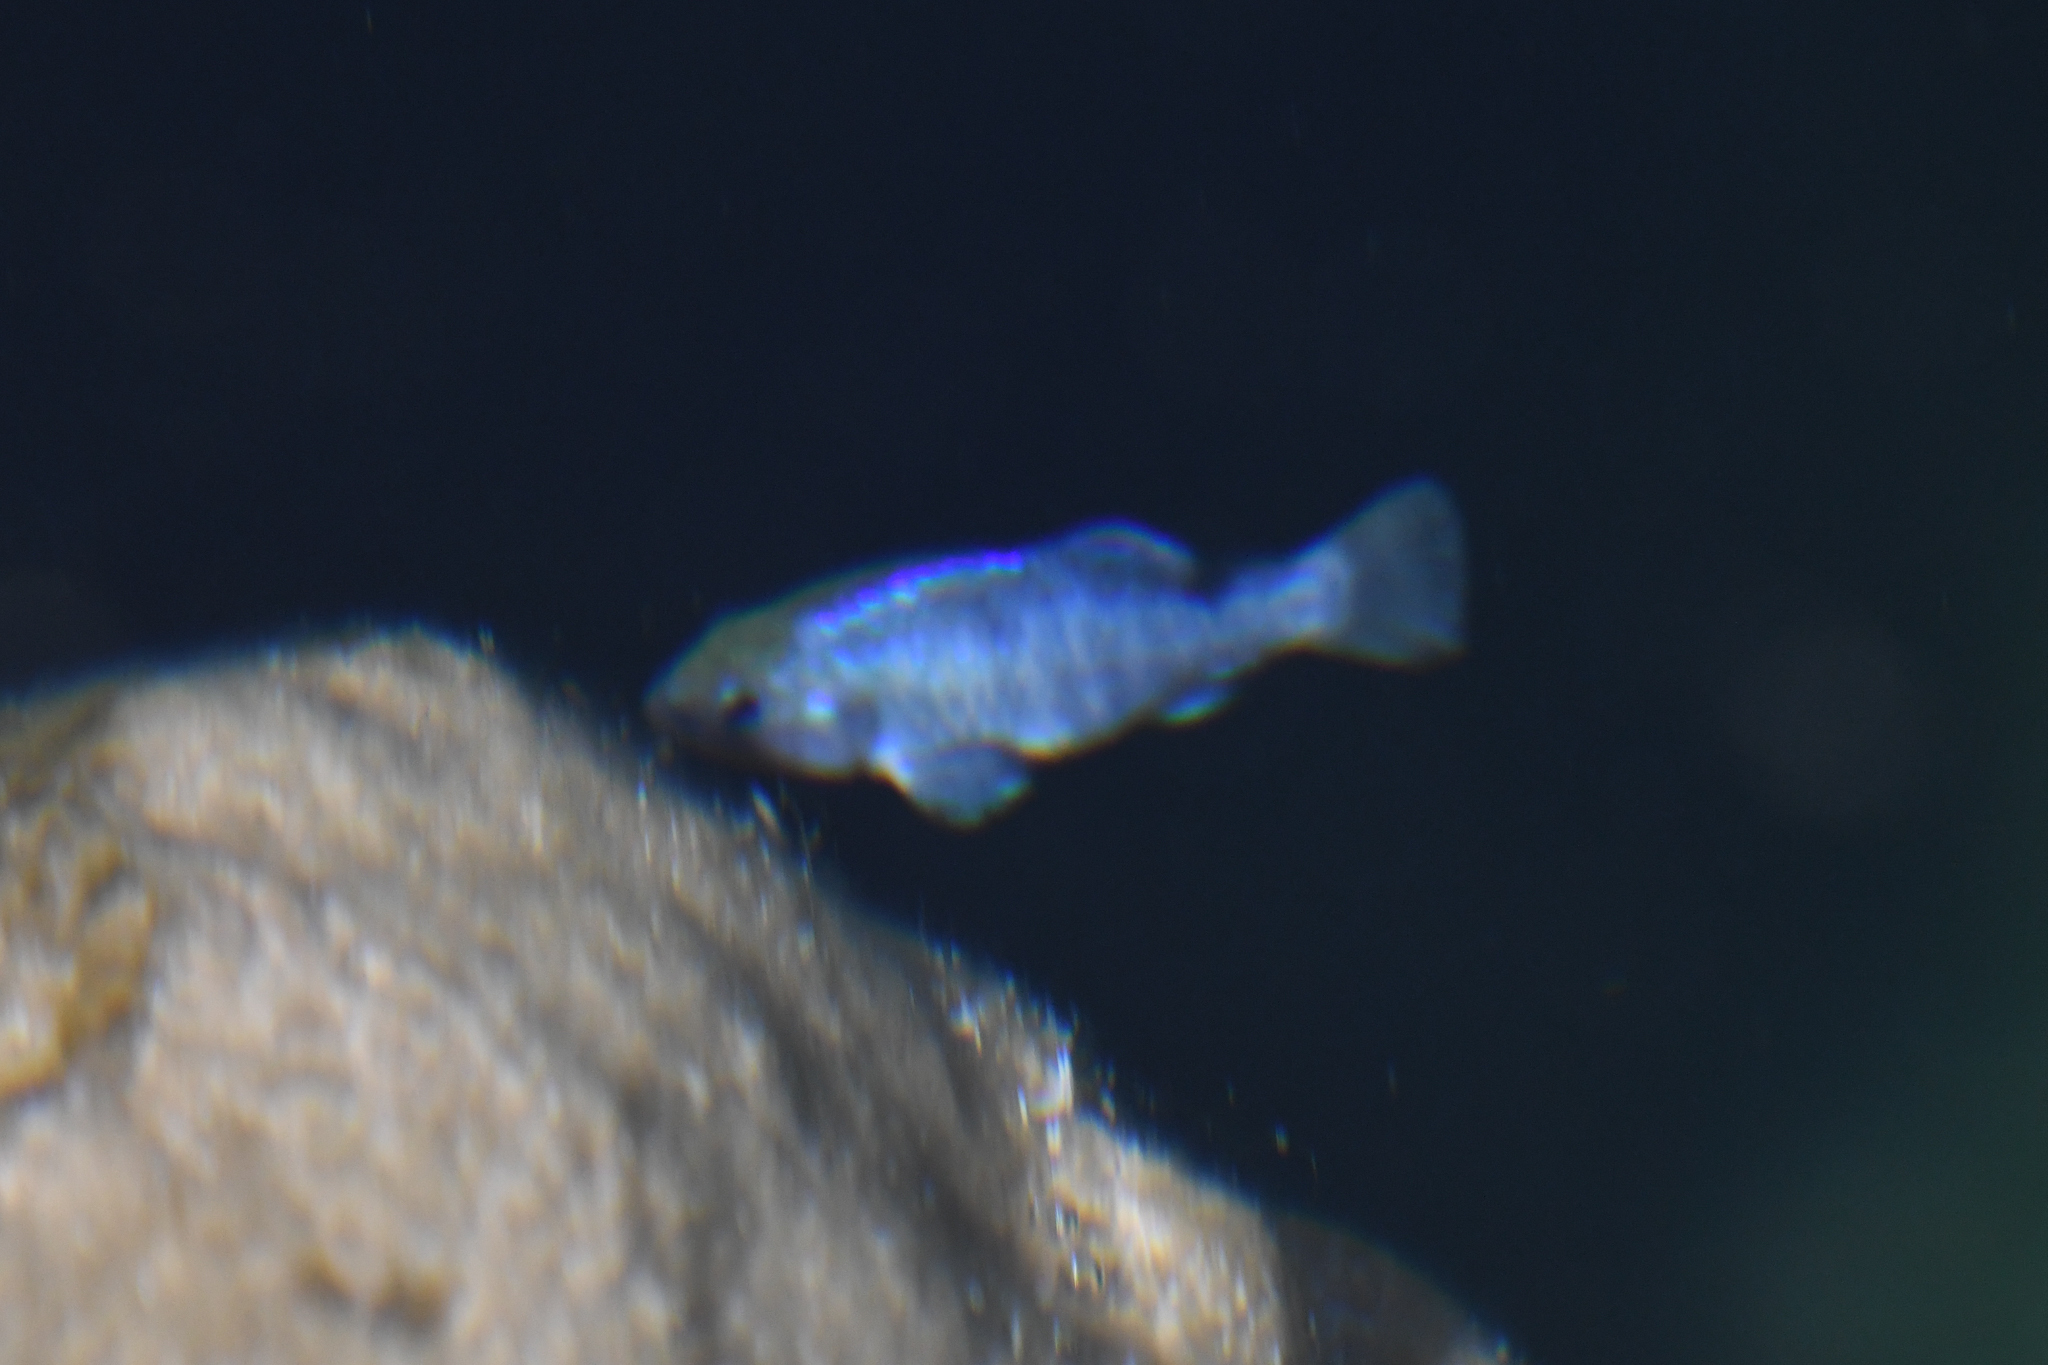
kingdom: Animalia
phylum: Chordata
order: Cyprinodontiformes
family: Cyprinodontidae
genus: Cyprinodon
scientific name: Cyprinodon nevadensis
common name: Amargosa pupfish
